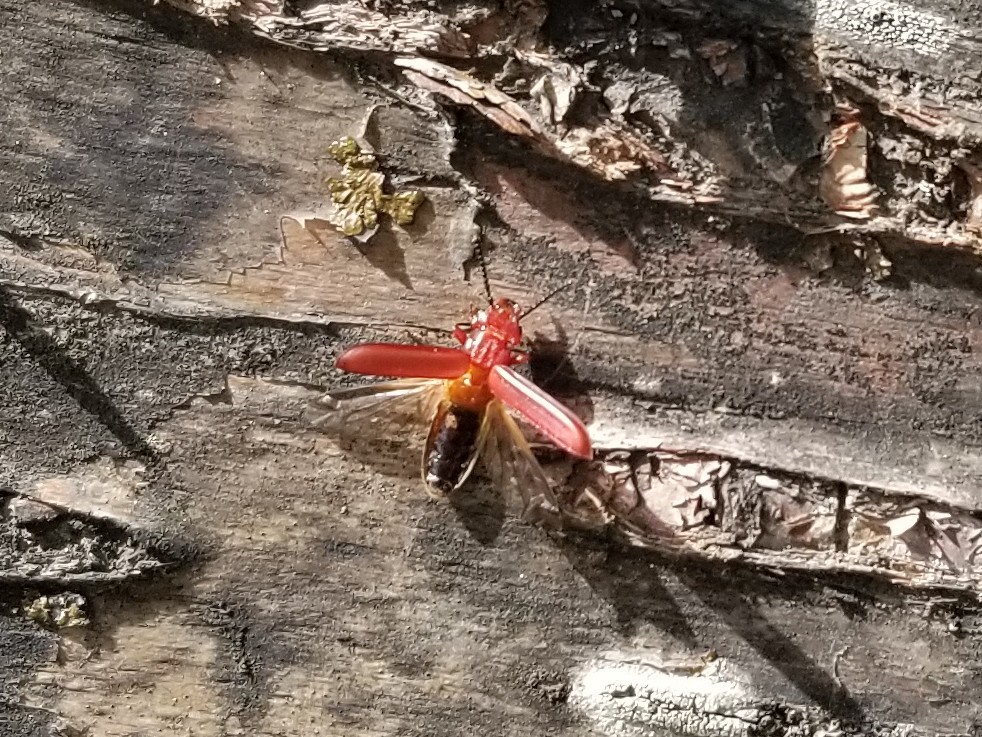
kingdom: Animalia
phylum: Arthropoda
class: Insecta
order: Coleoptera
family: Cucujidae
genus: Cucujus
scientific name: Cucujus clavipes
